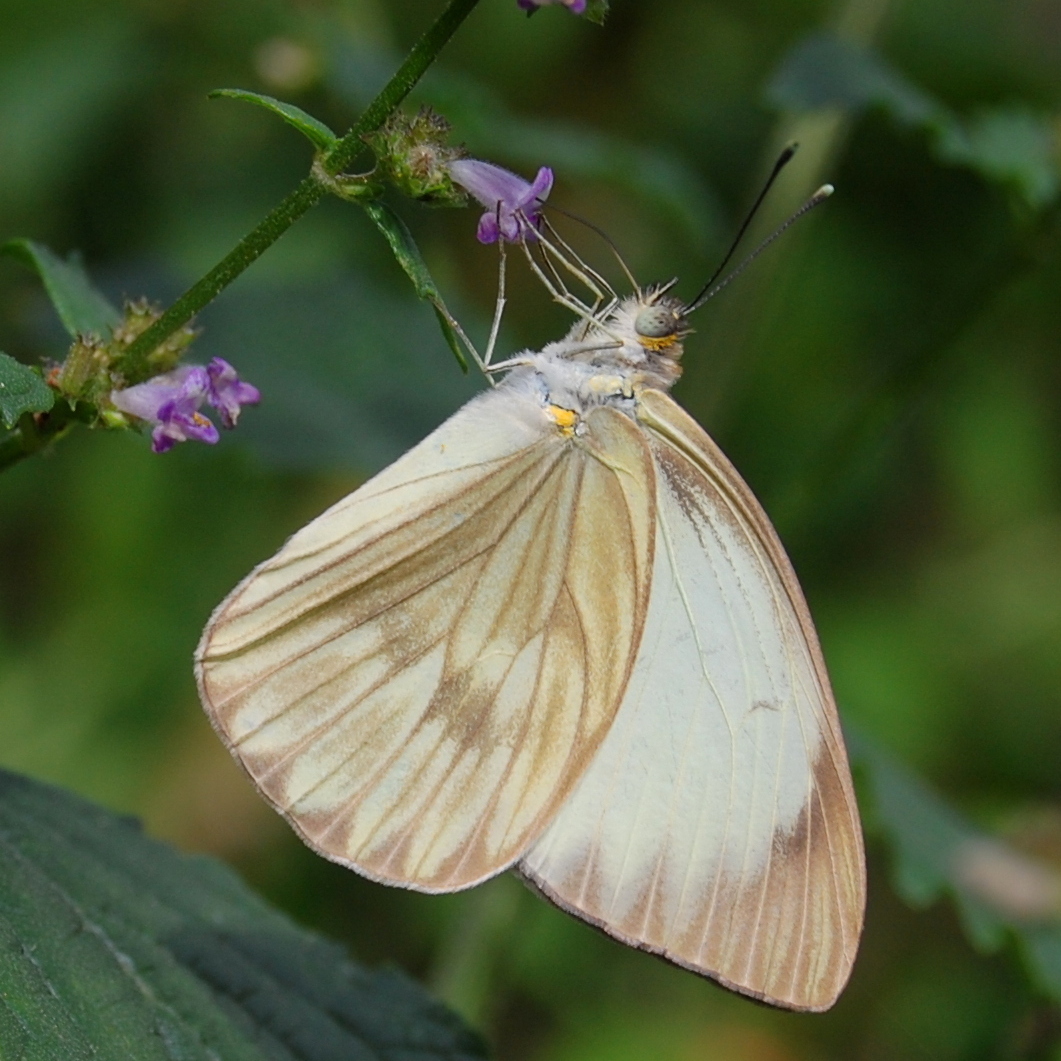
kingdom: Animalia
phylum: Arthropoda
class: Insecta
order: Lepidoptera
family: Pieridae
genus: Ascia
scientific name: Ascia monuste
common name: Great southern white
